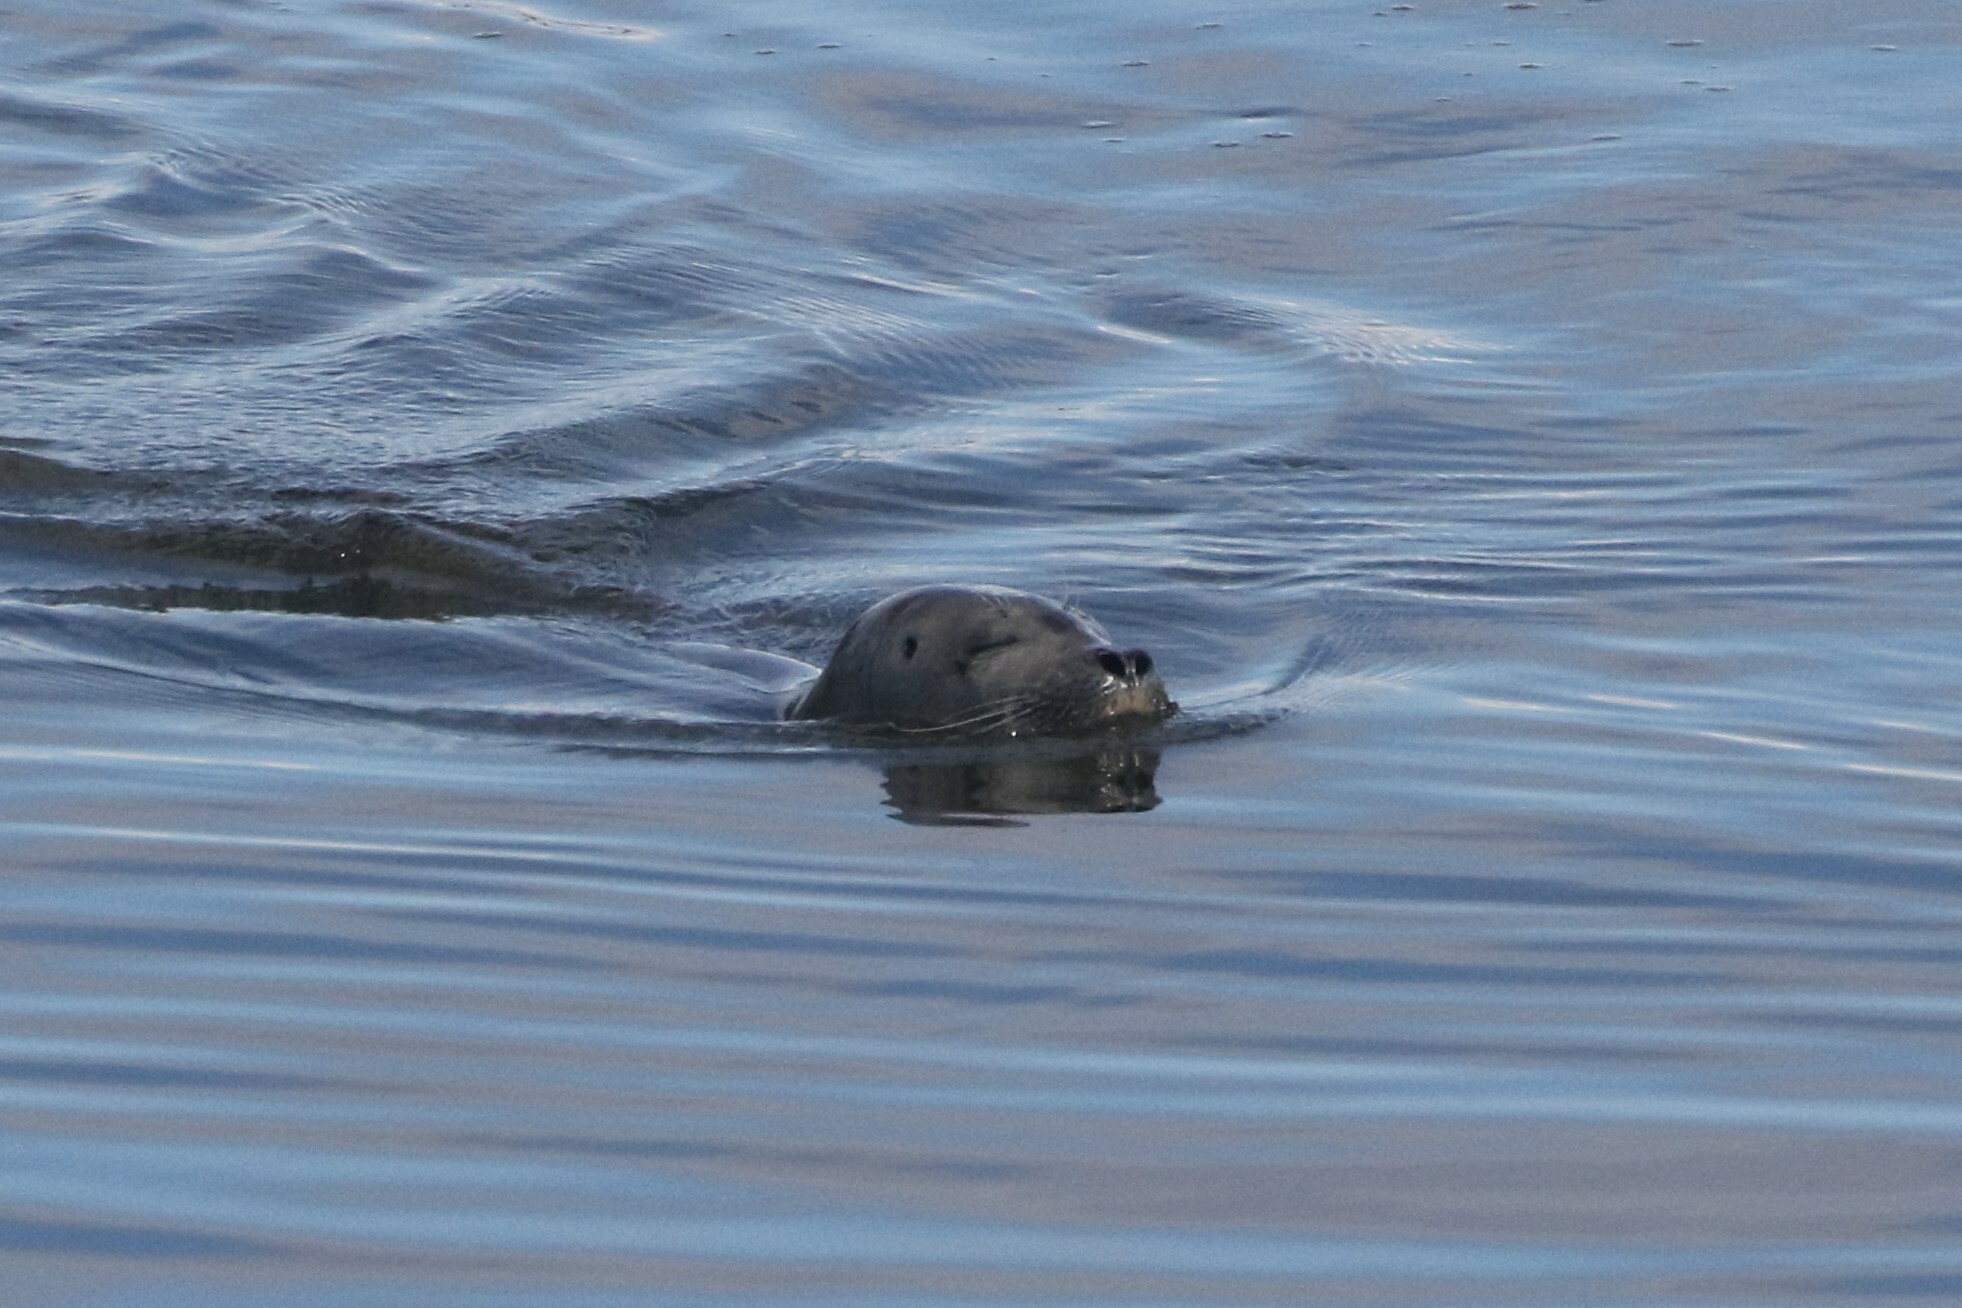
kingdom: Animalia
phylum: Chordata
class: Mammalia
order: Carnivora
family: Phocidae
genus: Phoca
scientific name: Phoca vitulina
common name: Harbor seal
